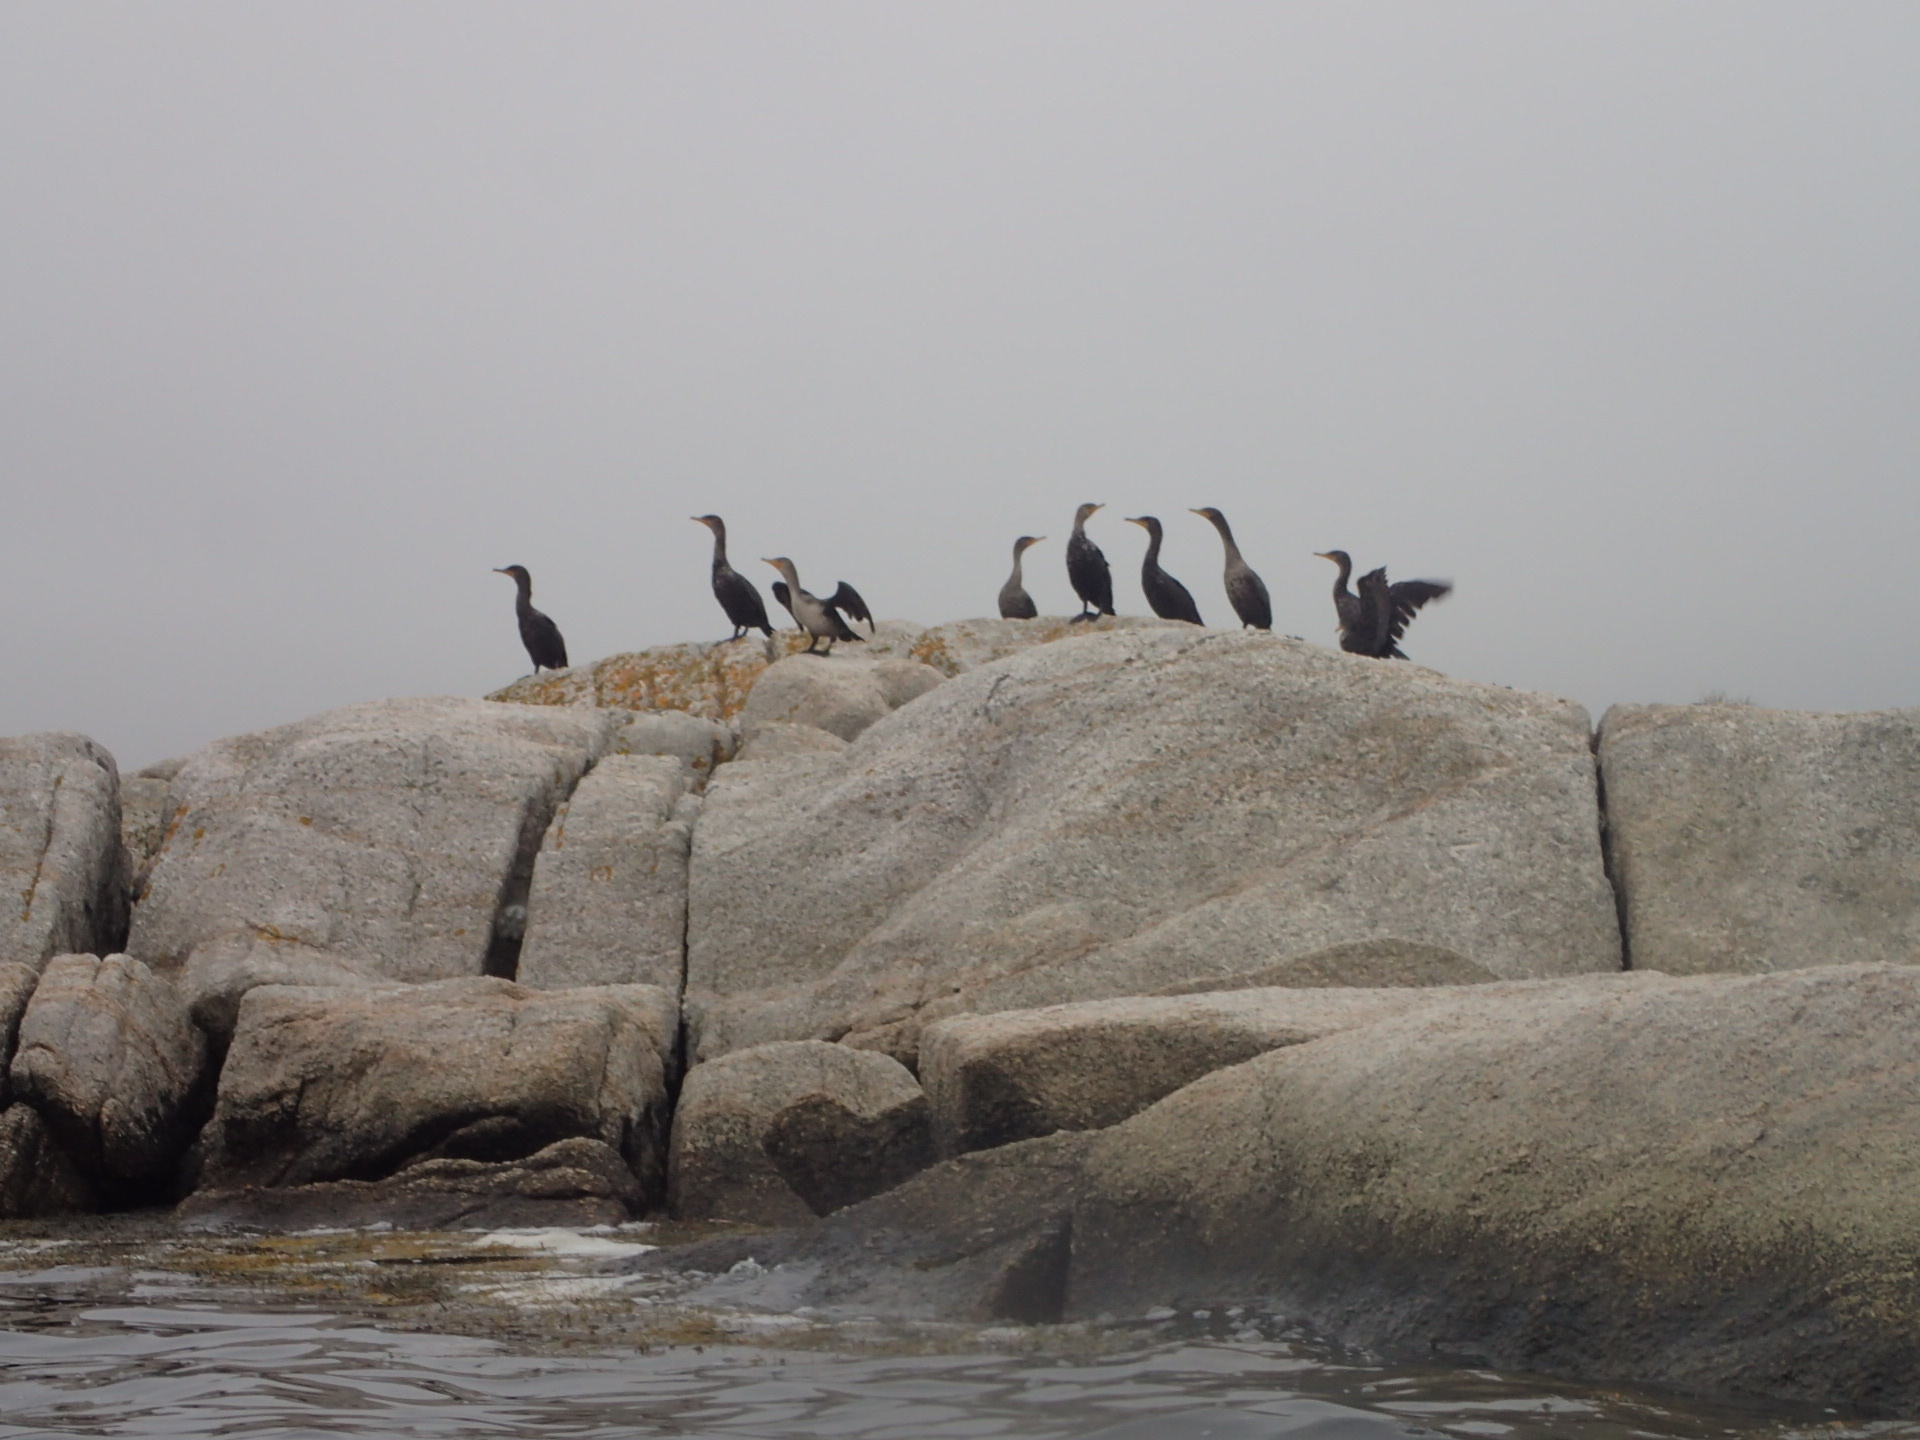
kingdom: Animalia
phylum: Chordata
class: Aves
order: Suliformes
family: Phalacrocoracidae
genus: Phalacrocorax
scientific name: Phalacrocorax auritus
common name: Double-crested cormorant
